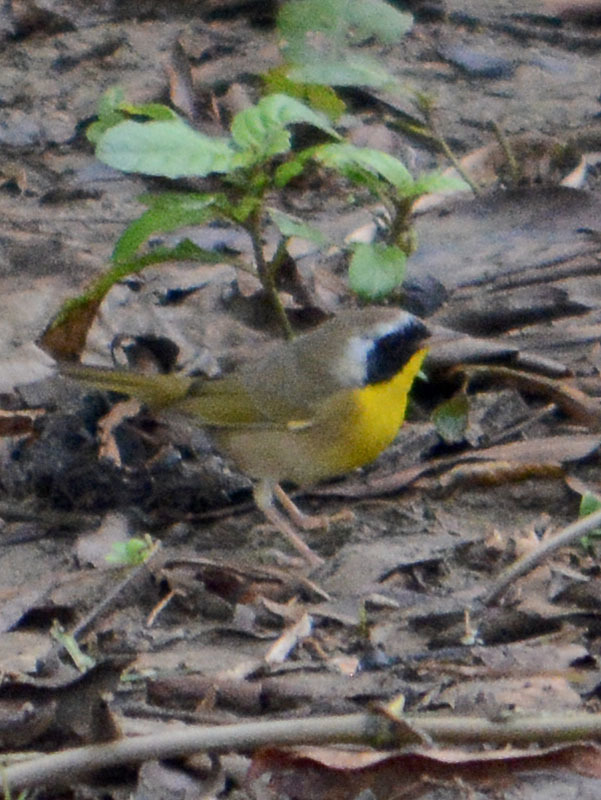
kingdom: Animalia
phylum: Chordata
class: Aves
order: Passeriformes
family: Parulidae
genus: Geothlypis
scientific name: Geothlypis trichas
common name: Common yellowthroat
